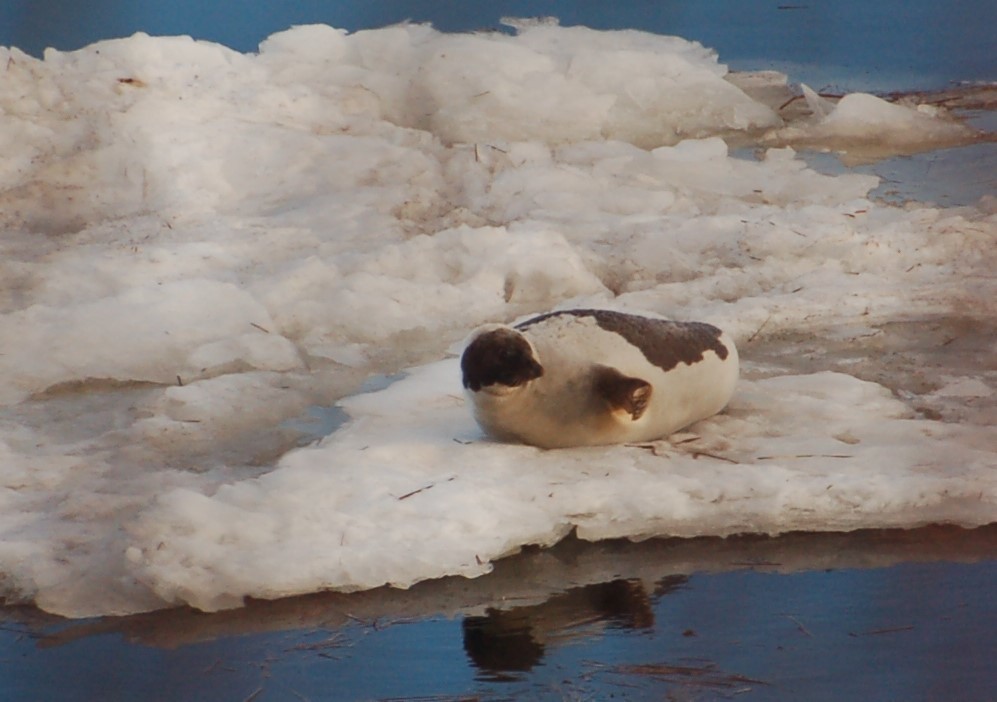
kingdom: Animalia
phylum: Chordata
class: Mammalia
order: Carnivora
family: Phocidae
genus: Pagophilus
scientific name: Pagophilus groenlandicus
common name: Harp seal
